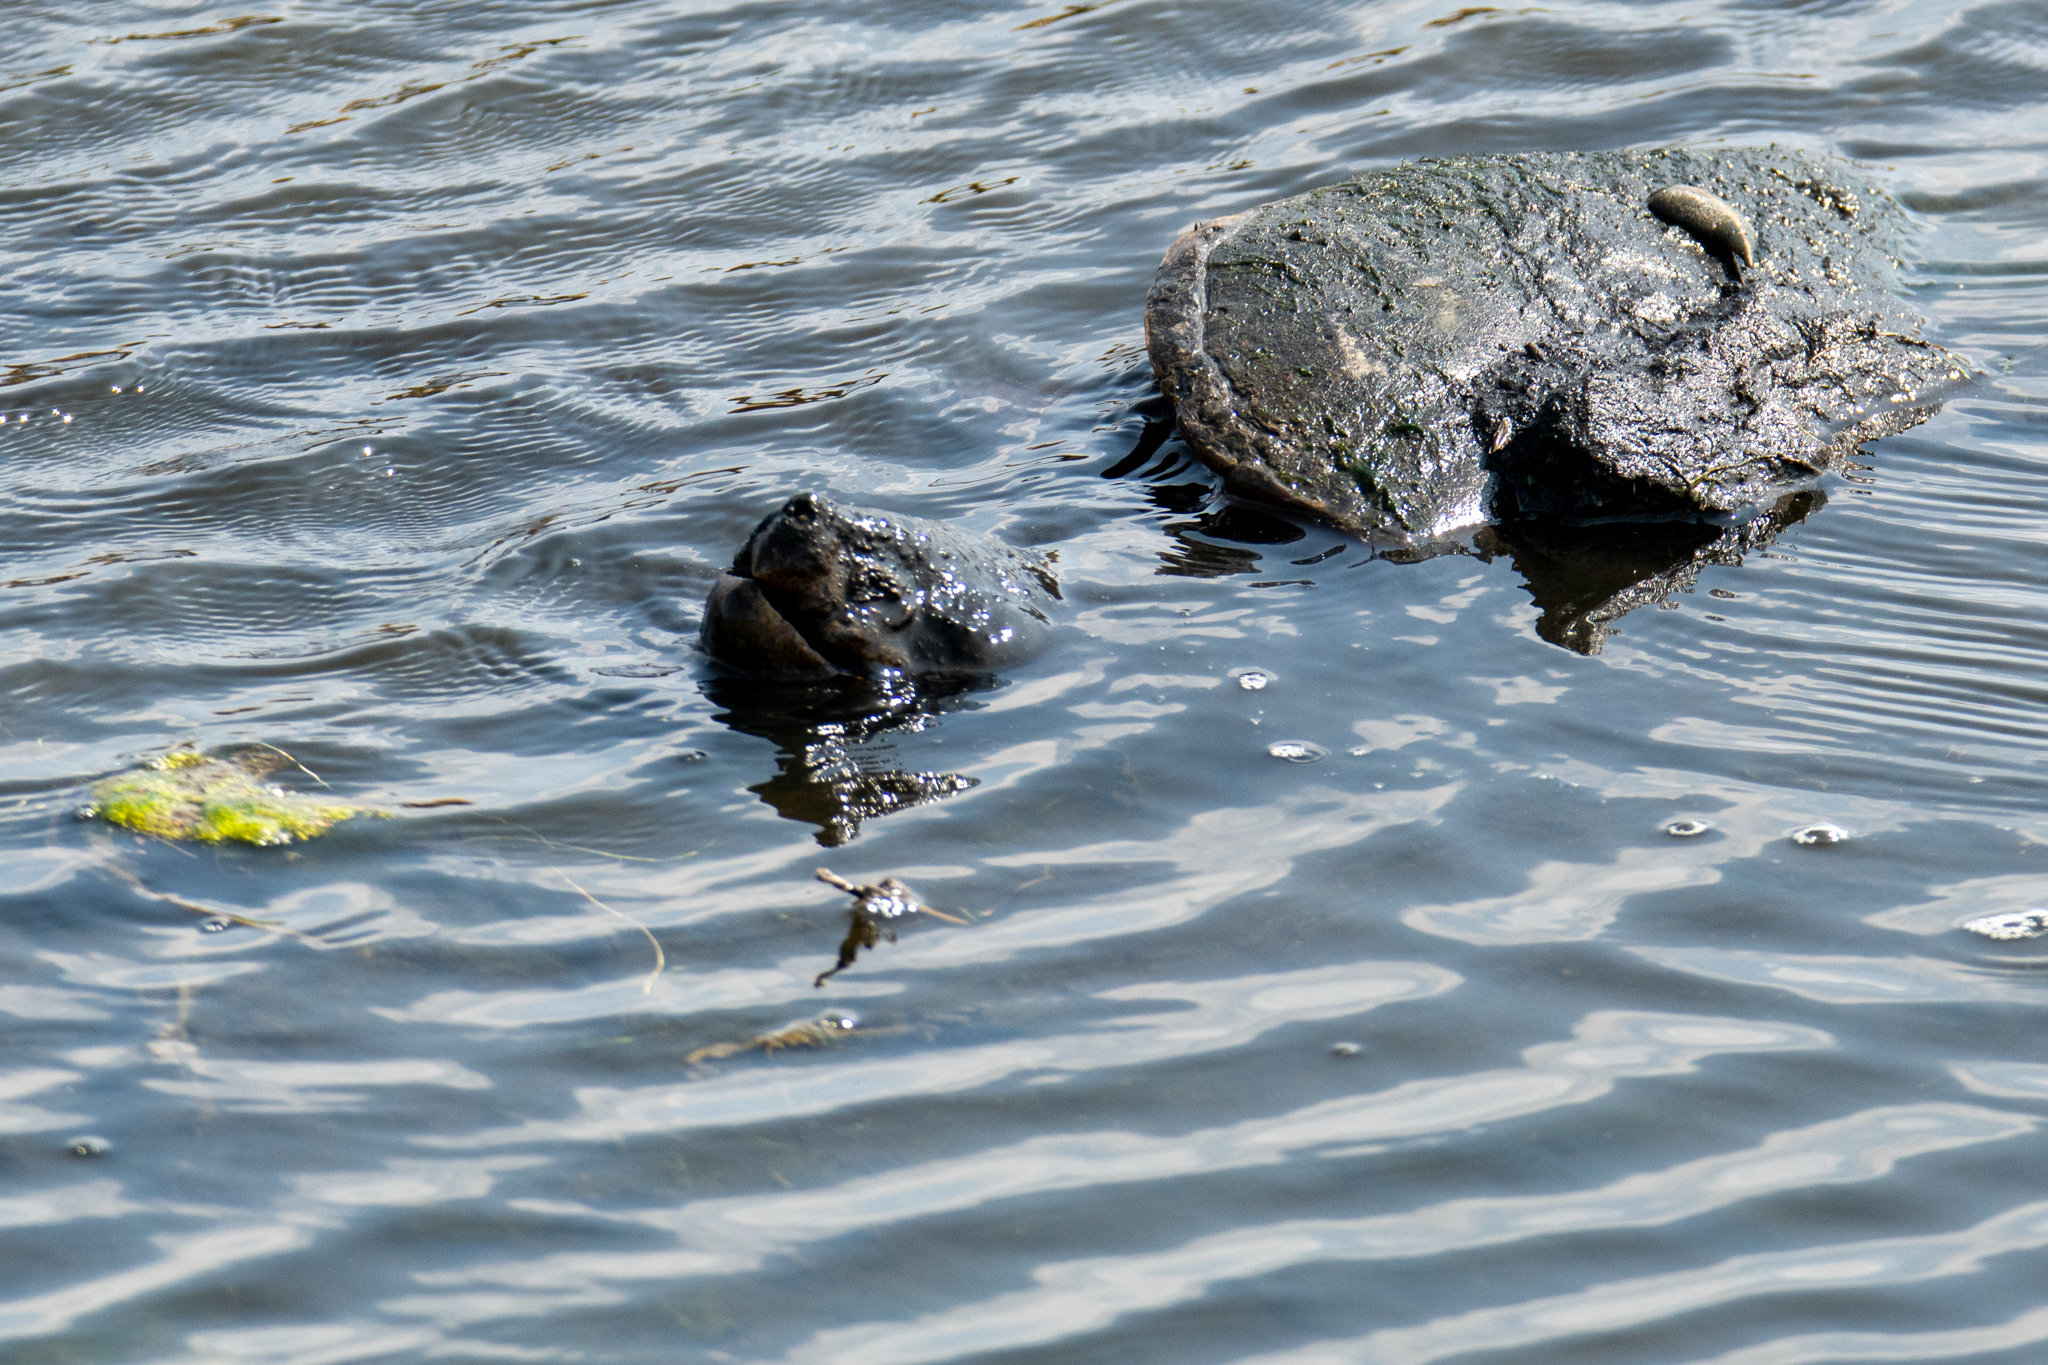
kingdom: Animalia
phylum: Chordata
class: Testudines
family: Chelydridae
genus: Chelydra
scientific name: Chelydra serpentina
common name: Common snapping turtle
